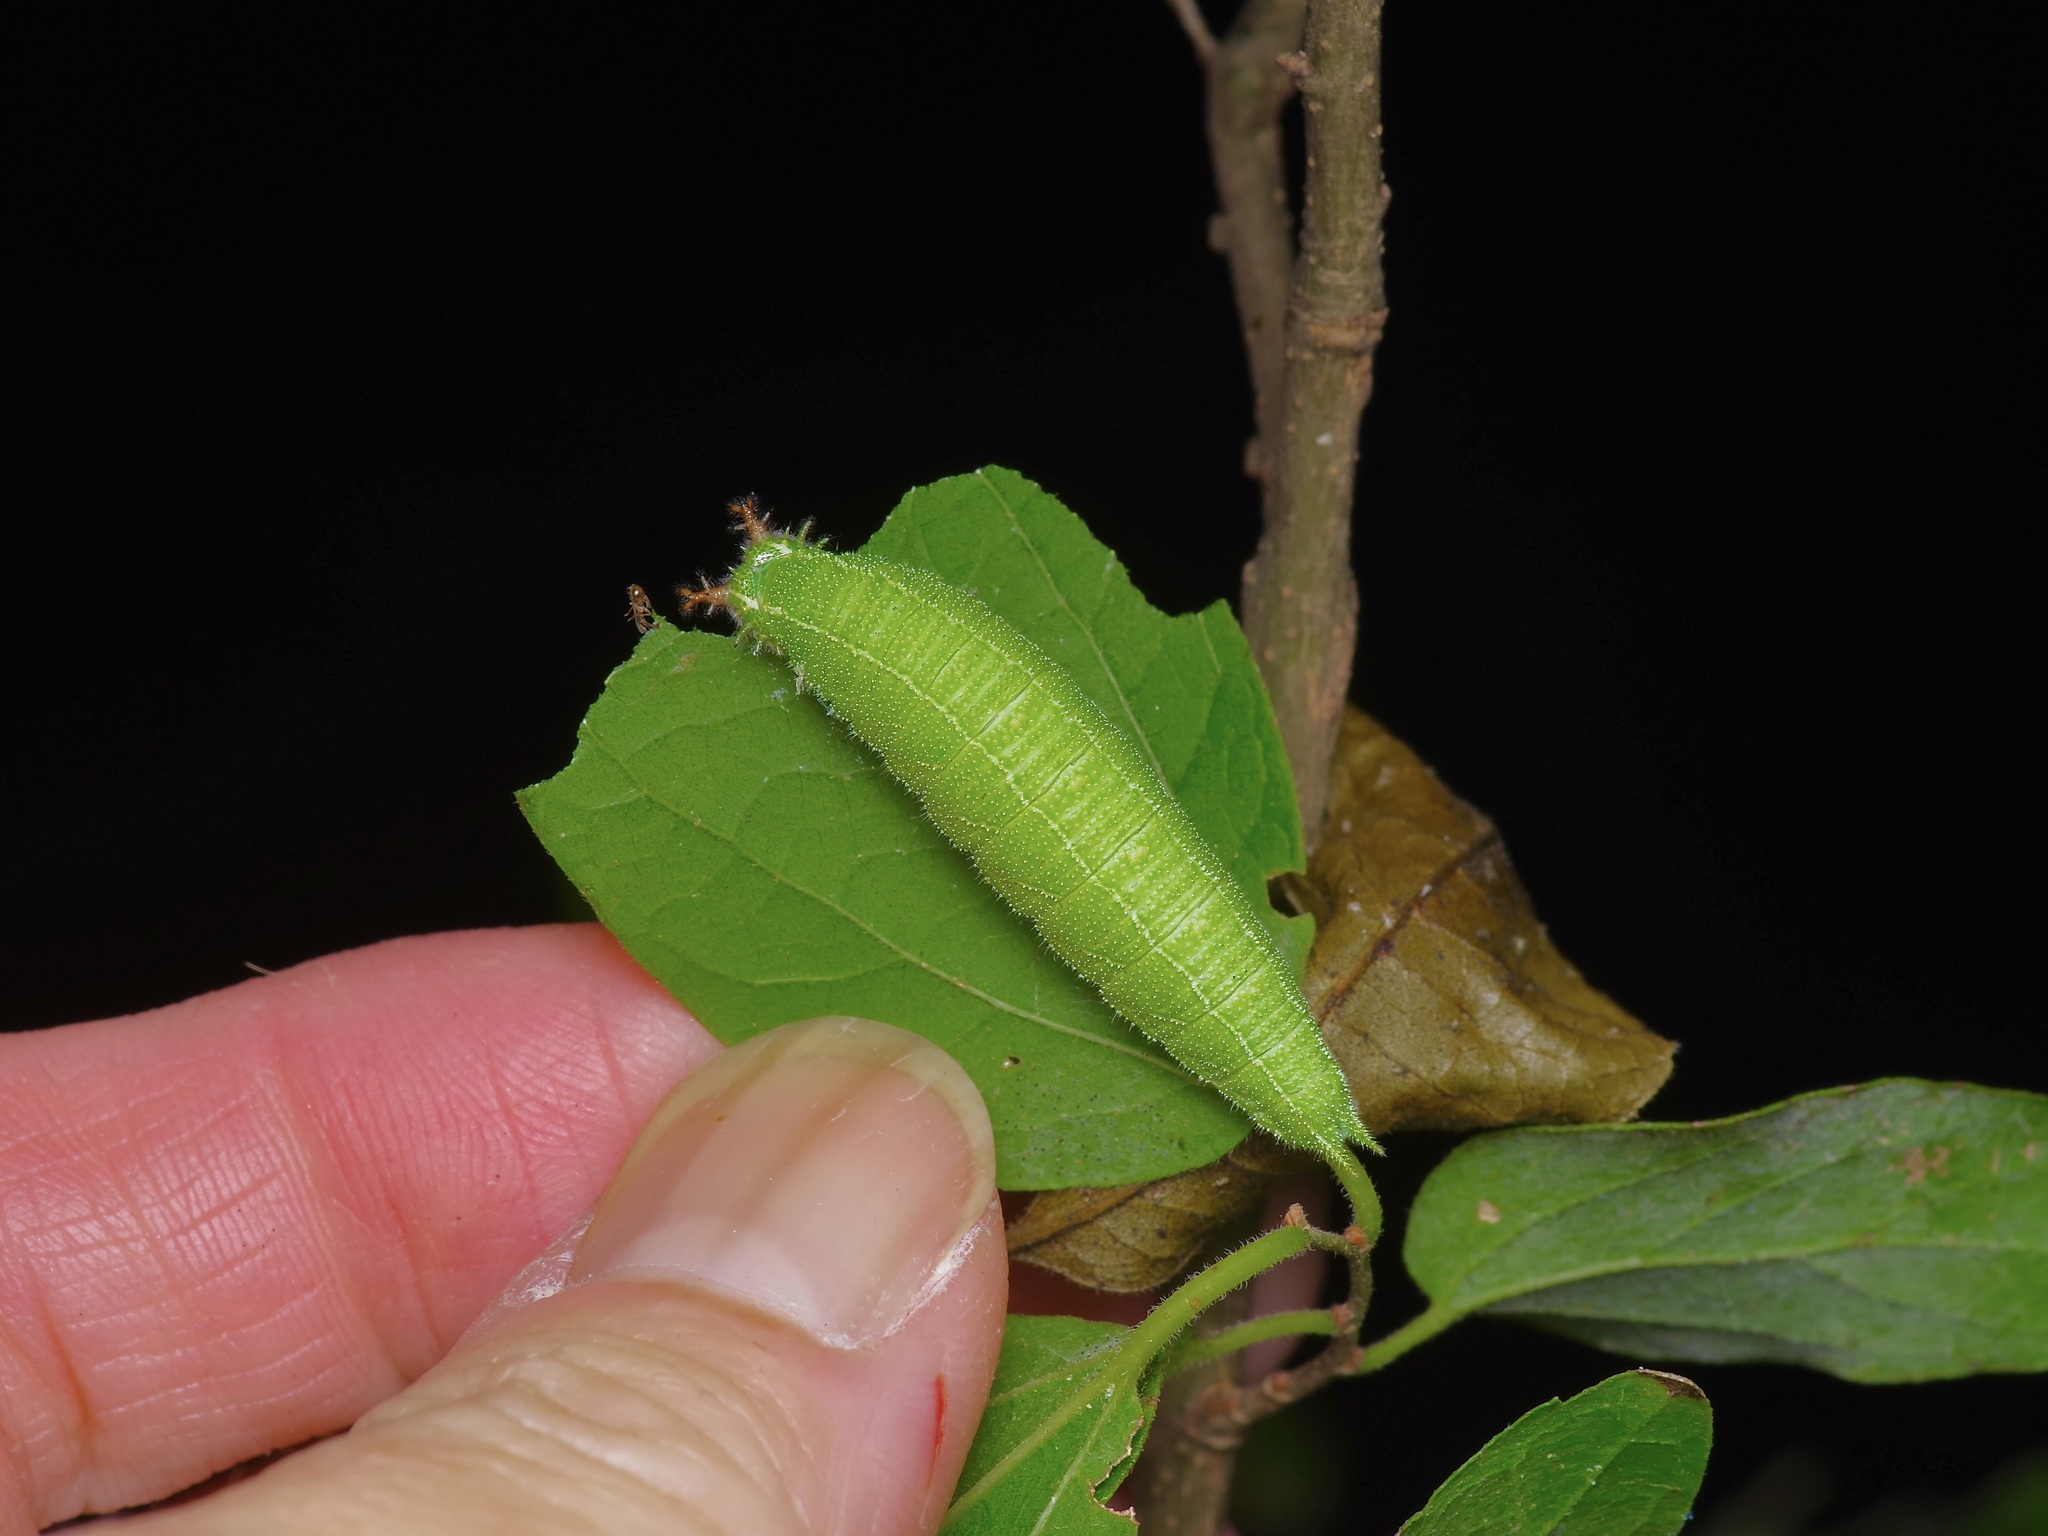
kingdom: Animalia
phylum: Arthropoda
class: Insecta
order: Lepidoptera
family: Nymphalidae
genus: Asterocampa
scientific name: Asterocampa celtis
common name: Hackberry emperor
